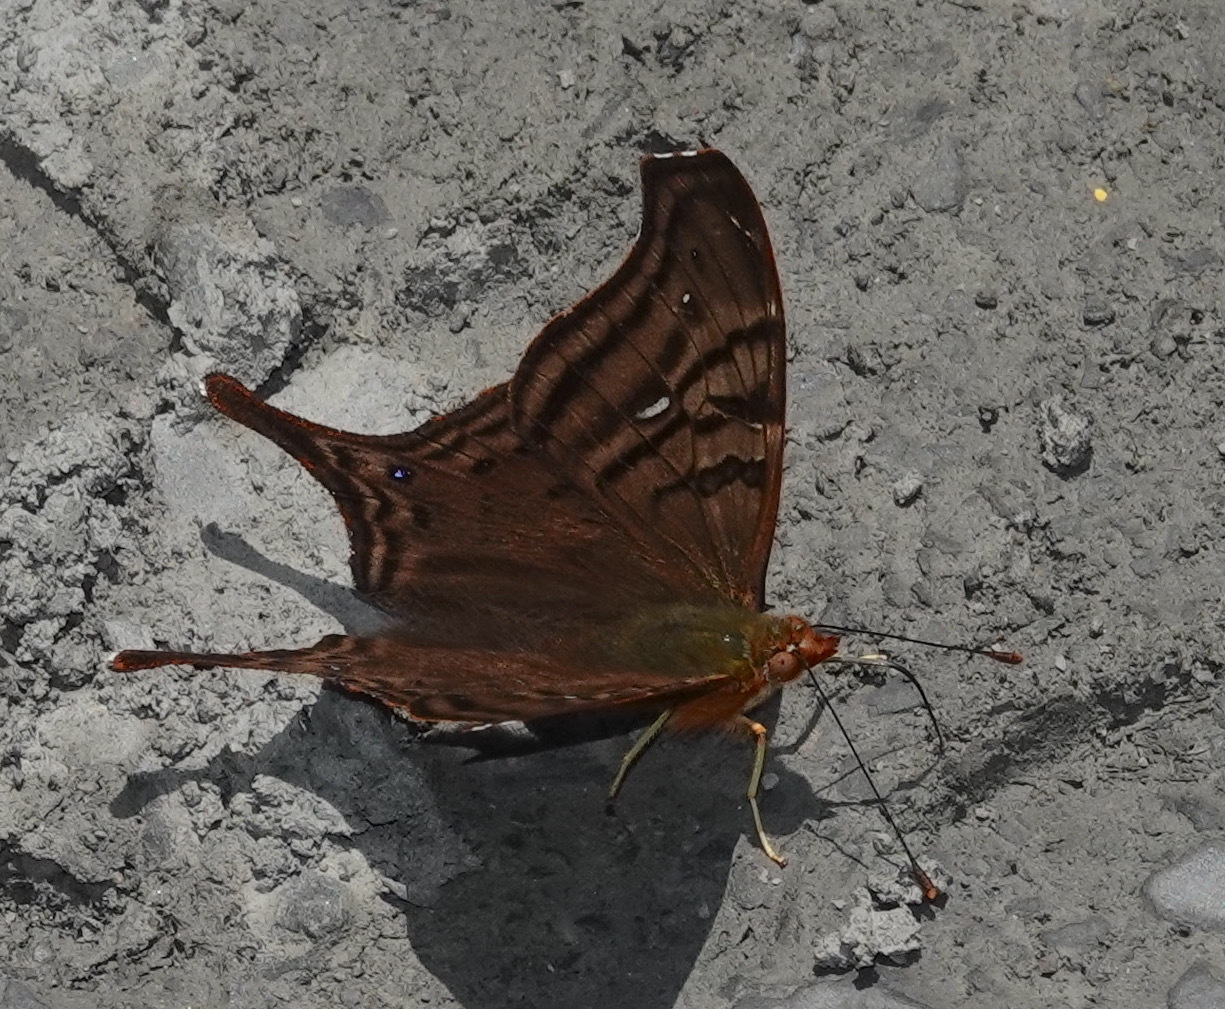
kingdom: Animalia
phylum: Arthropoda
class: Insecta
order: Lepidoptera
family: Nymphalidae
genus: Hypanartia
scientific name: Hypanartia dione
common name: Banded mapwing
